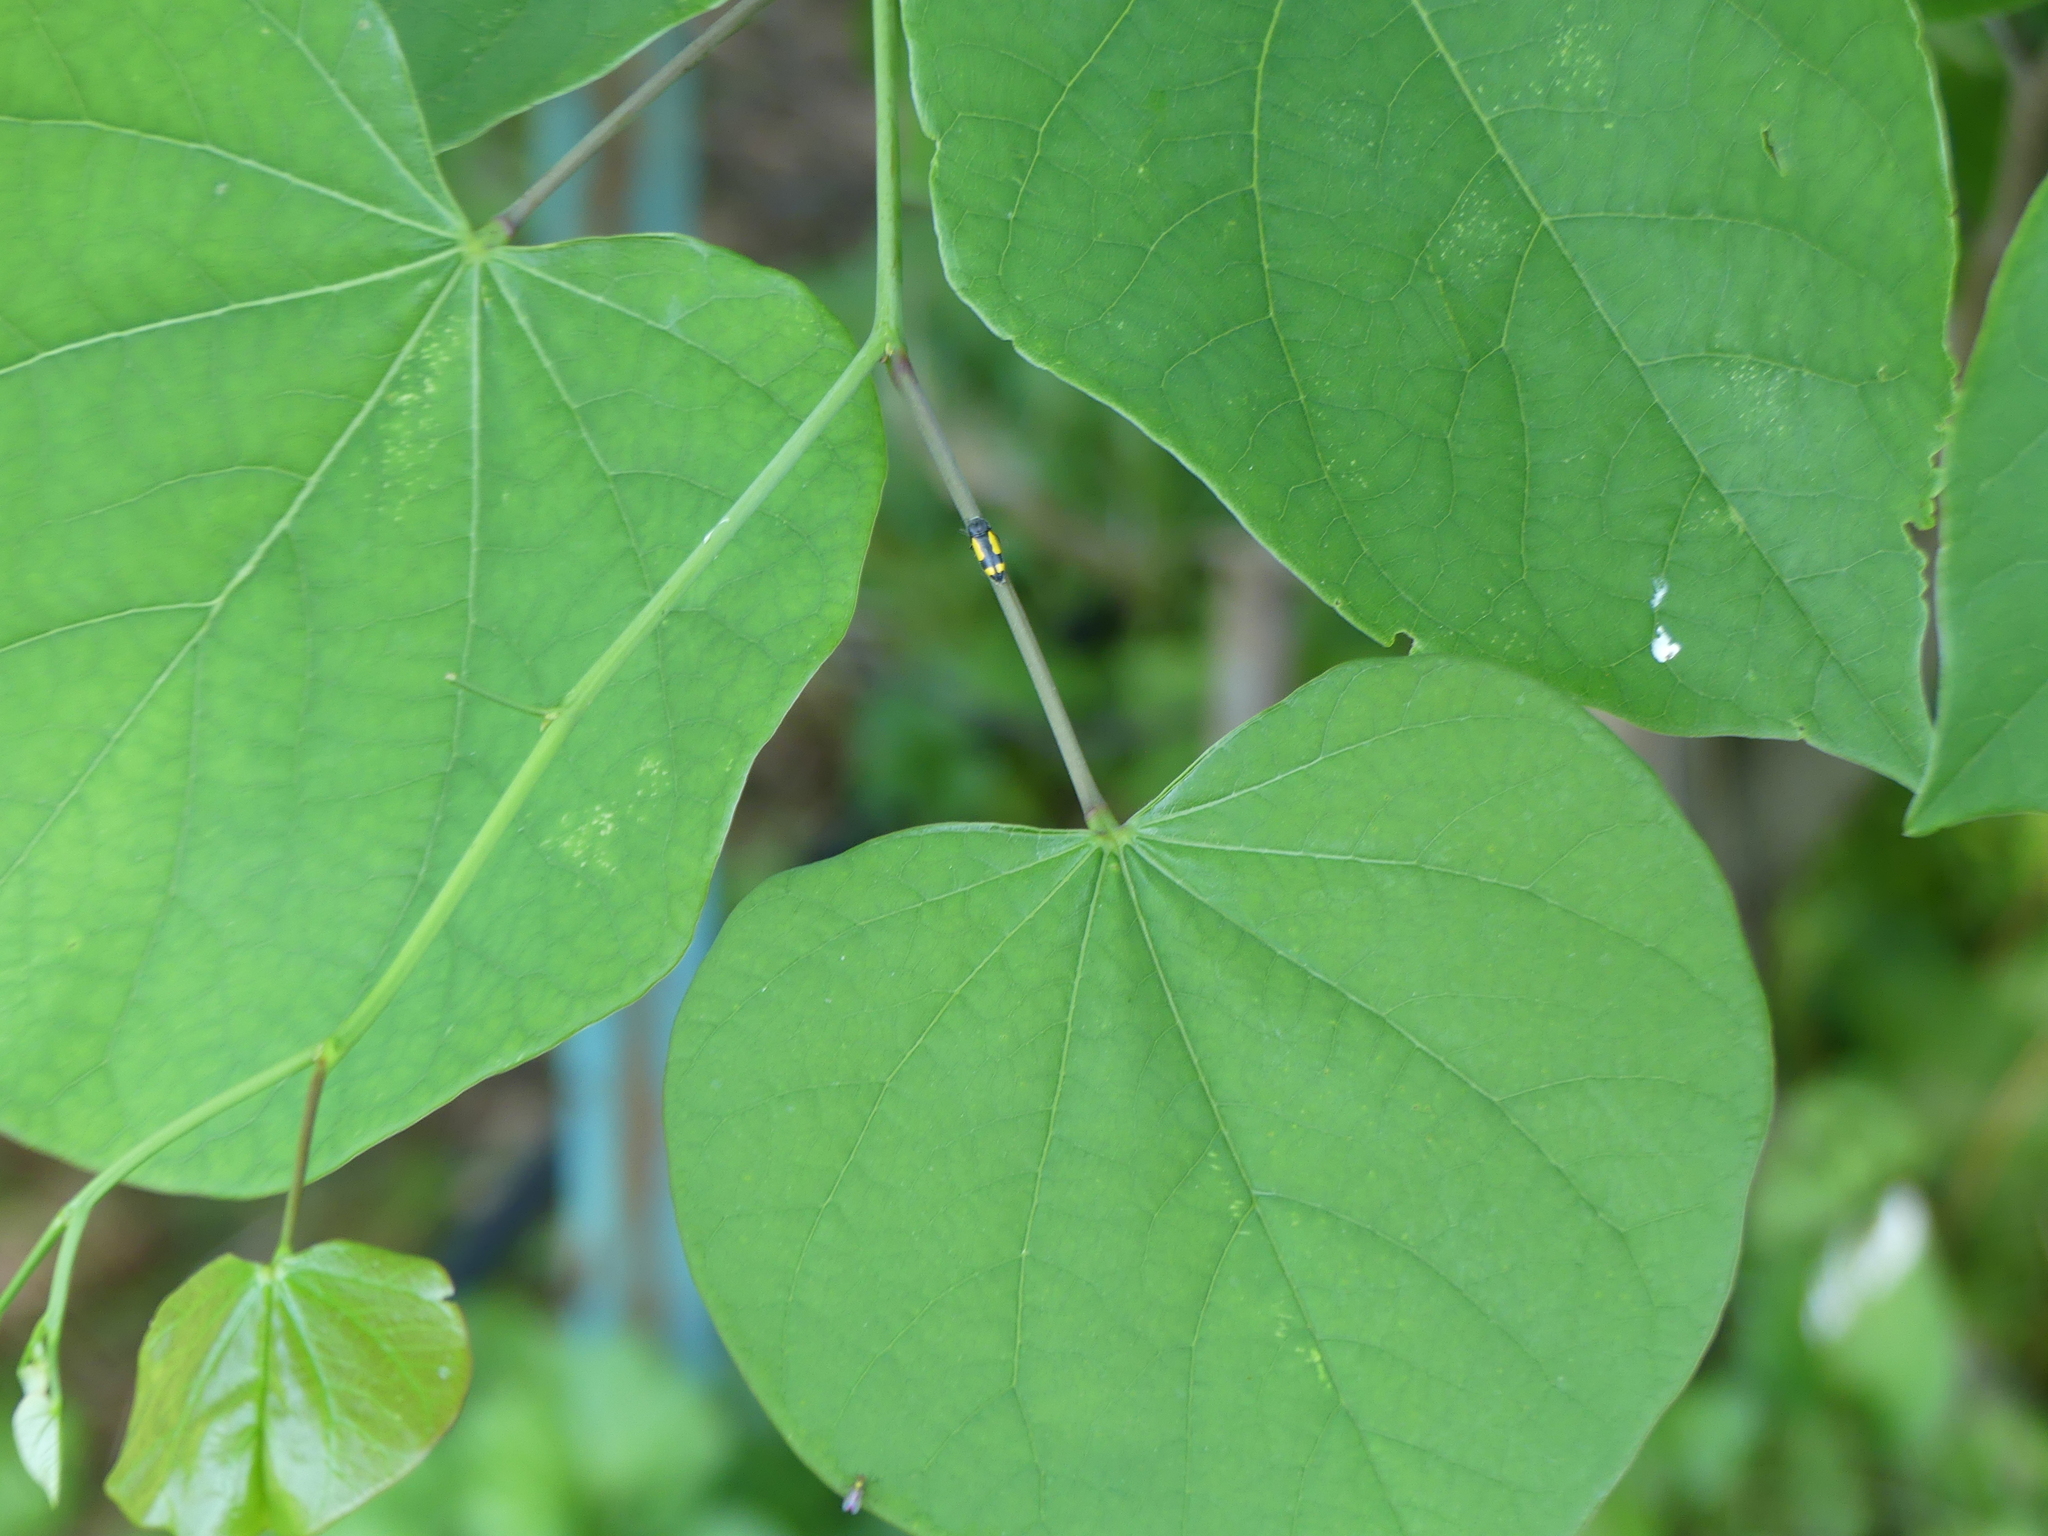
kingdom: Animalia
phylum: Arthropoda
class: Insecta
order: Coleoptera
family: Buprestidae
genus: Ptosima
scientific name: Ptosima gibbicollis
